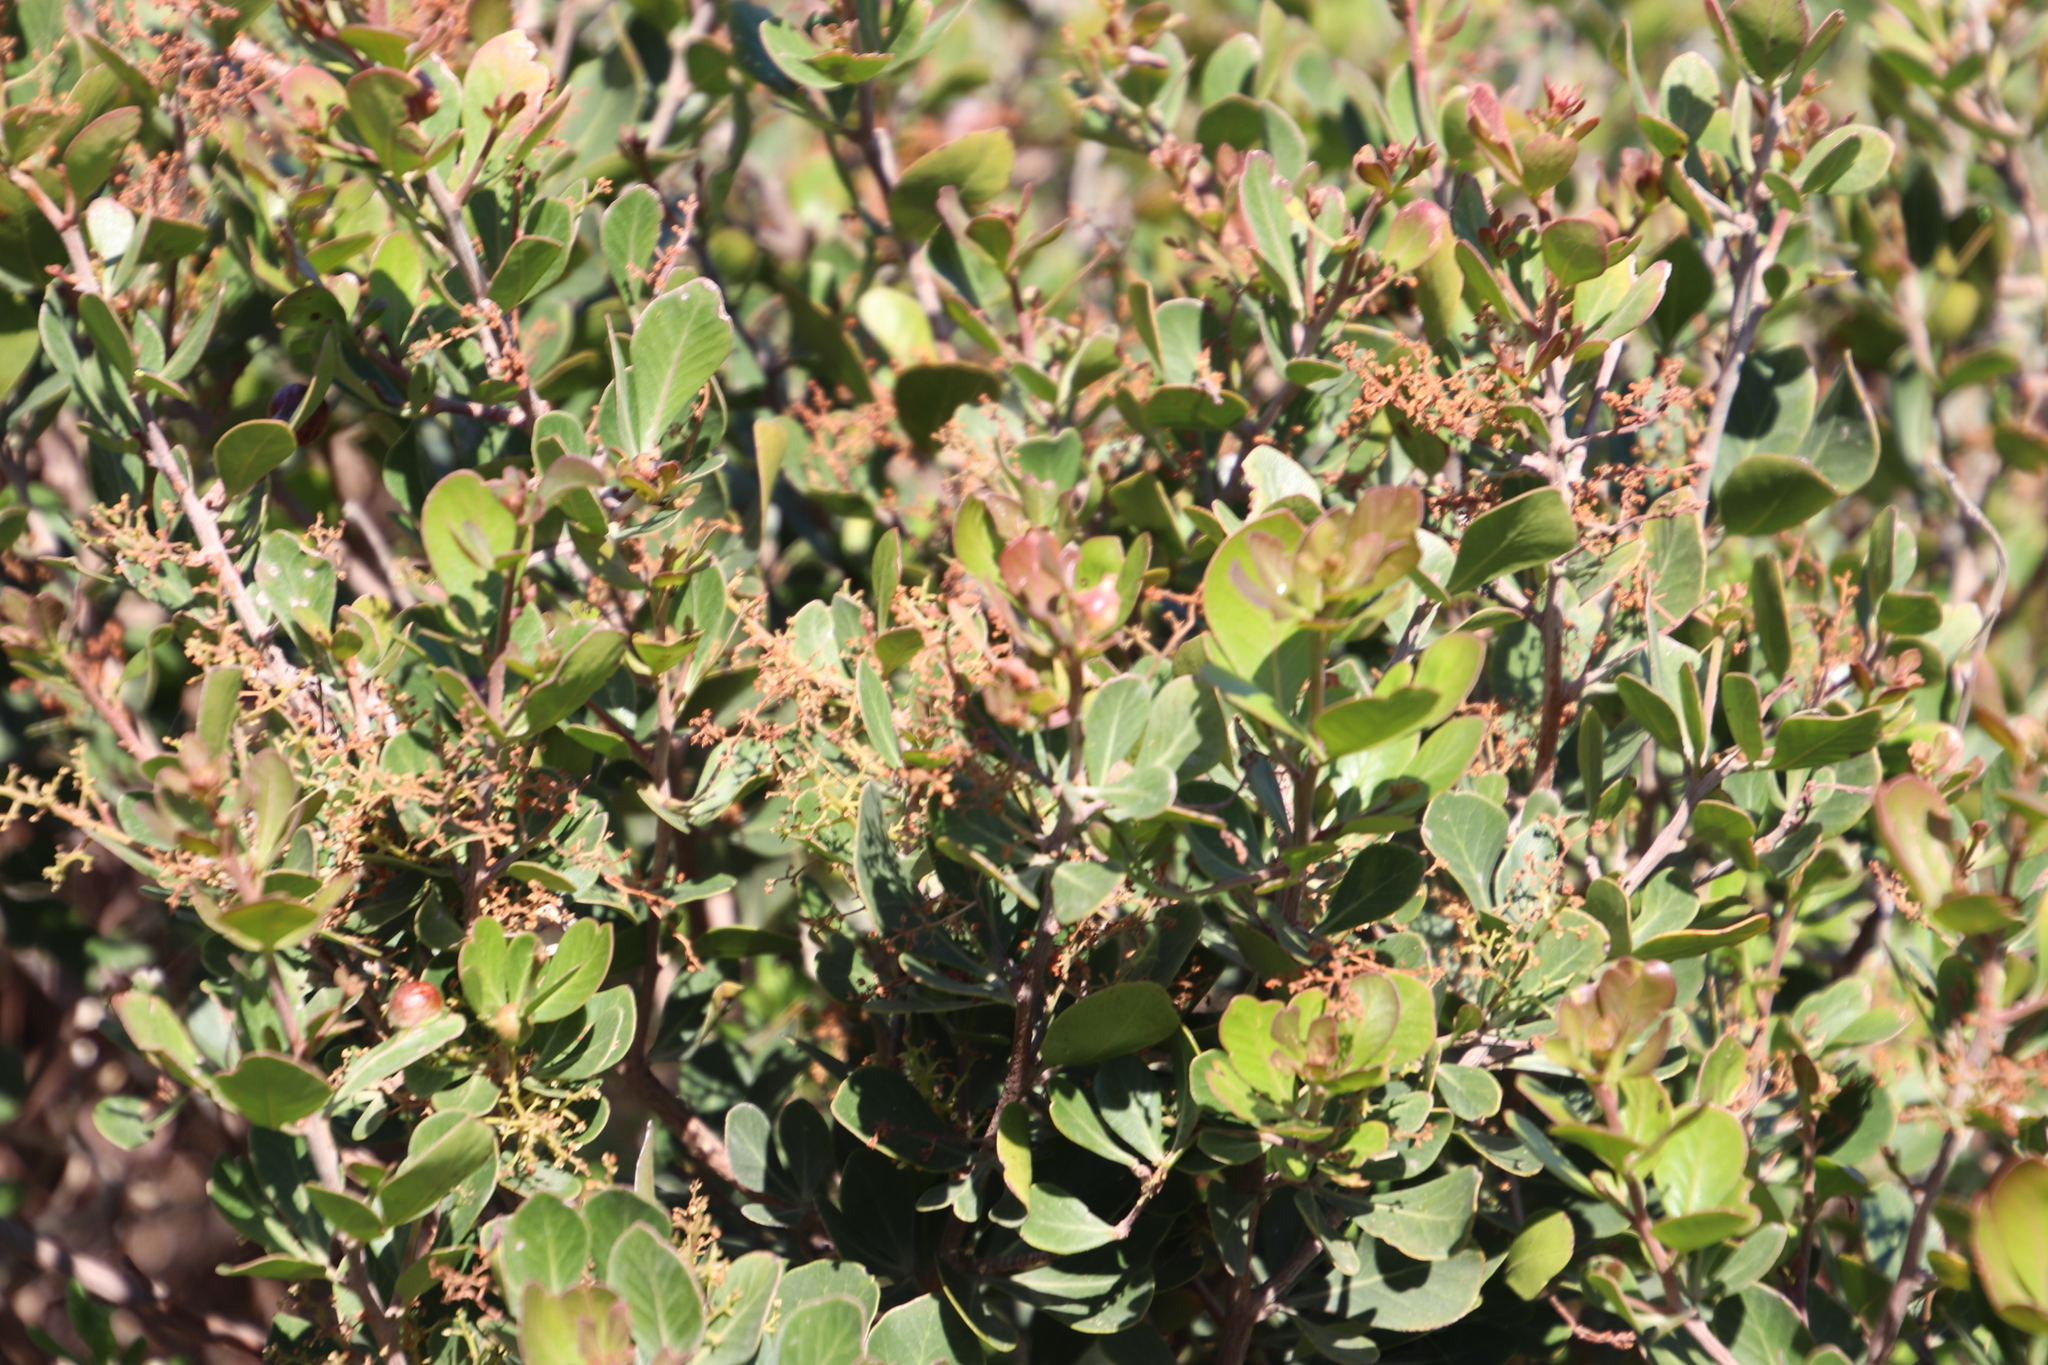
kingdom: Plantae
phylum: Tracheophyta
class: Magnoliopsida
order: Sapindales
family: Anacardiaceae
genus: Searsia
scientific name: Searsia lucida
